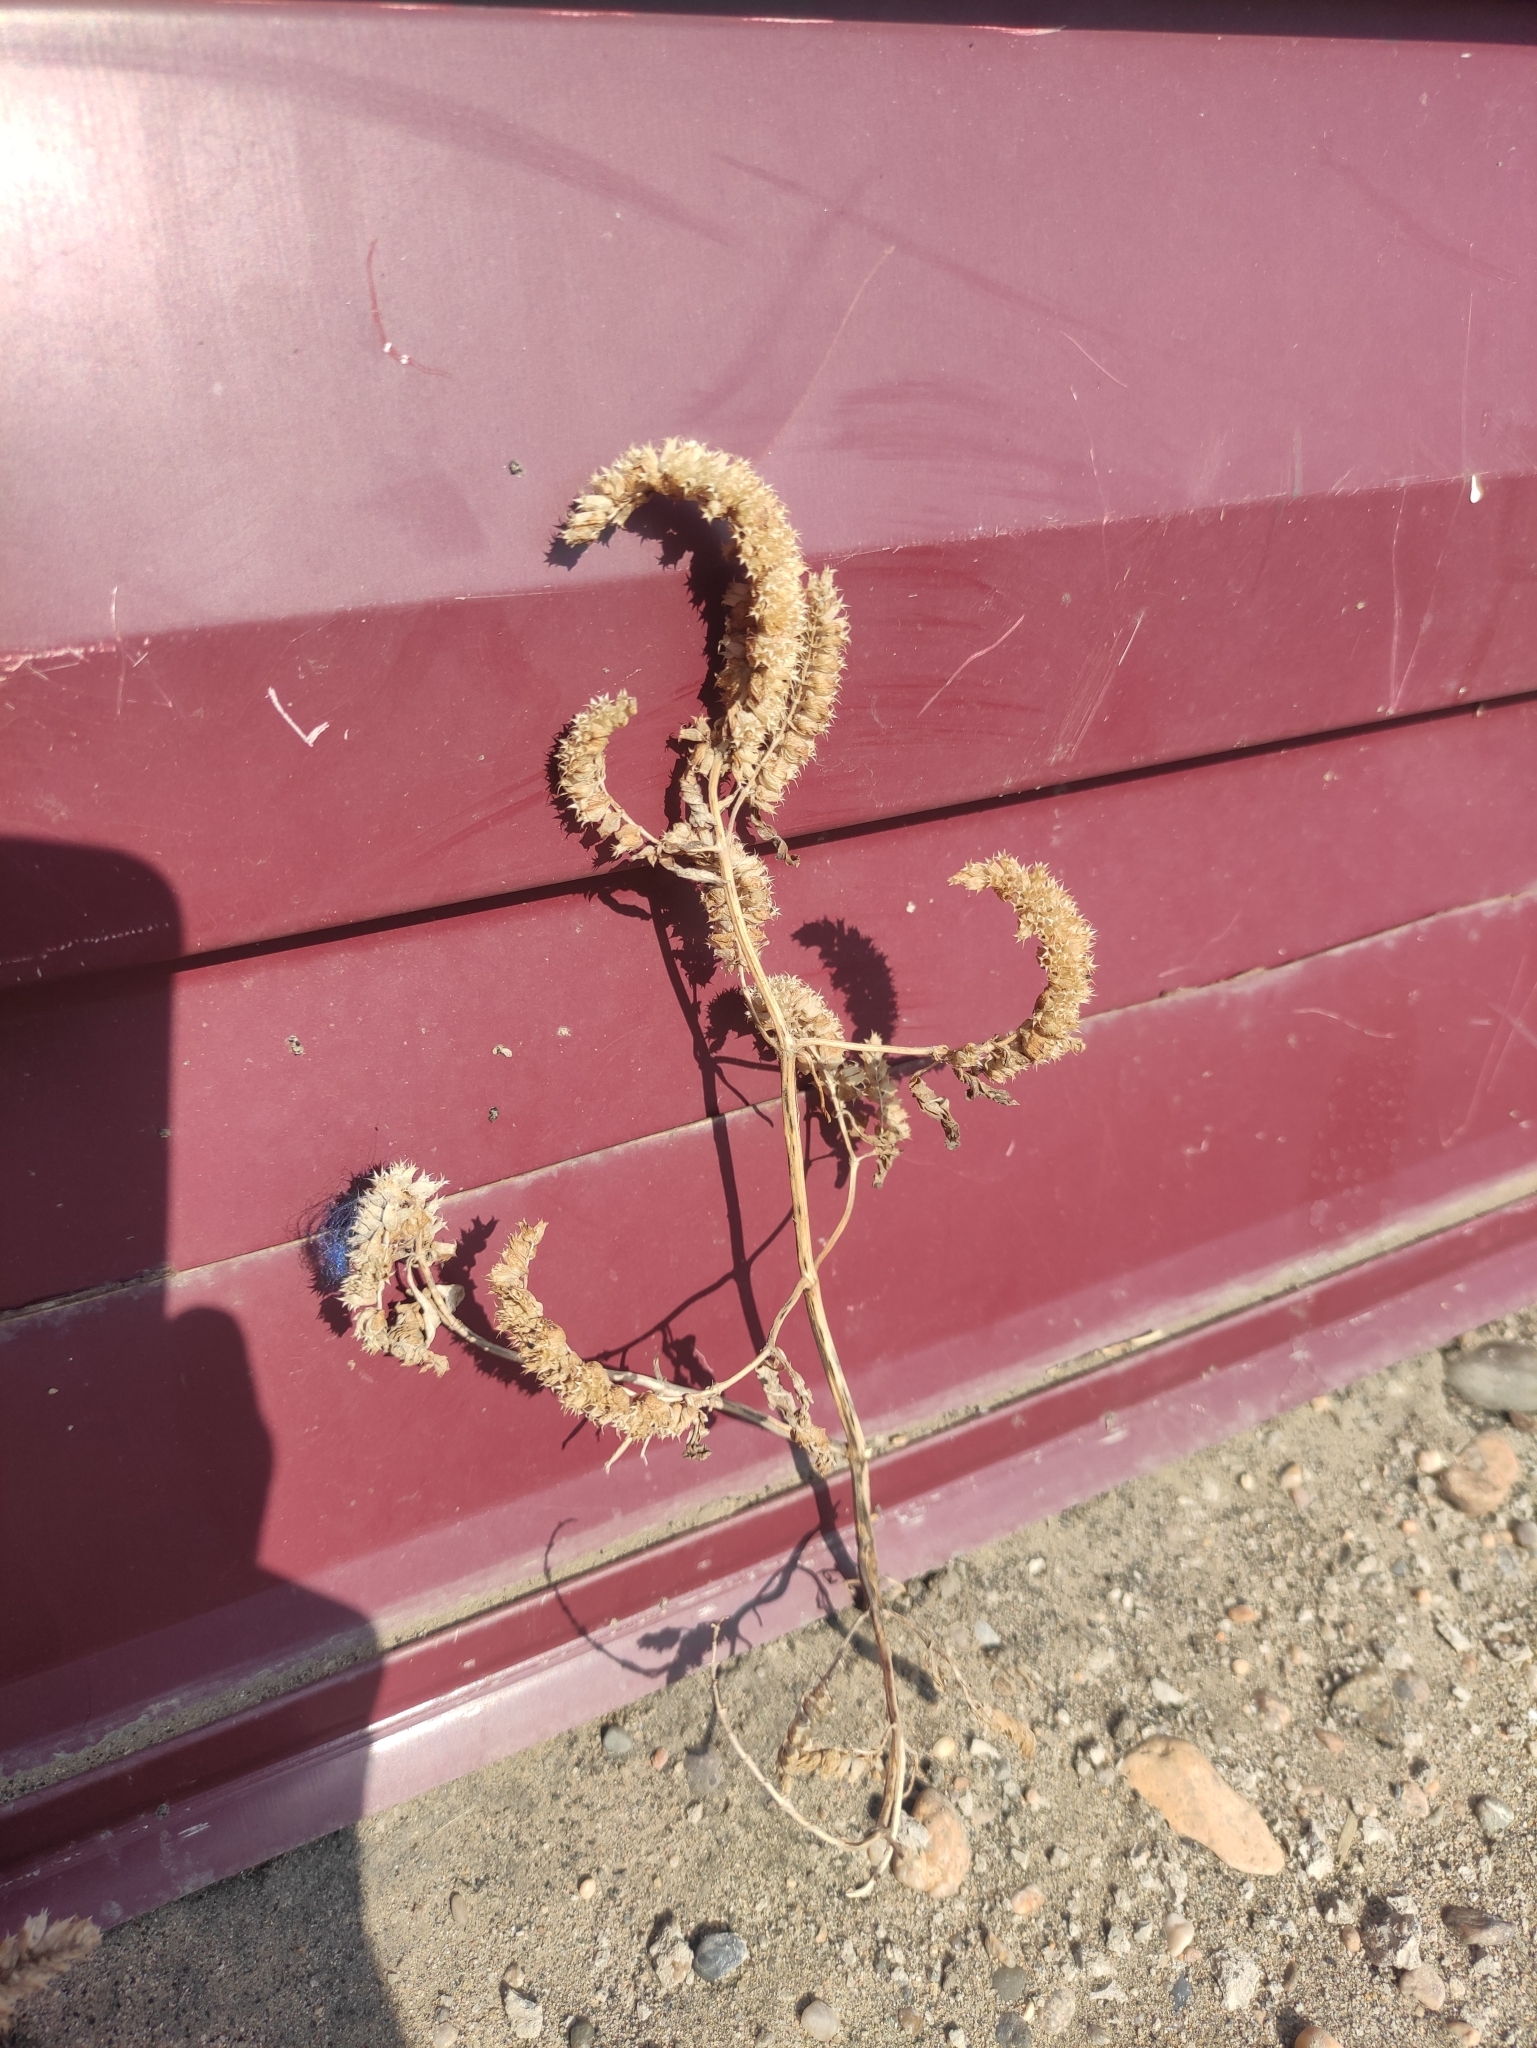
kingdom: Plantae
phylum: Tracheophyta
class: Magnoliopsida
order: Lamiales
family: Lamiaceae
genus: Elsholtzia
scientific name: Elsholtzia ciliata
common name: Ciliate elsholtzia
